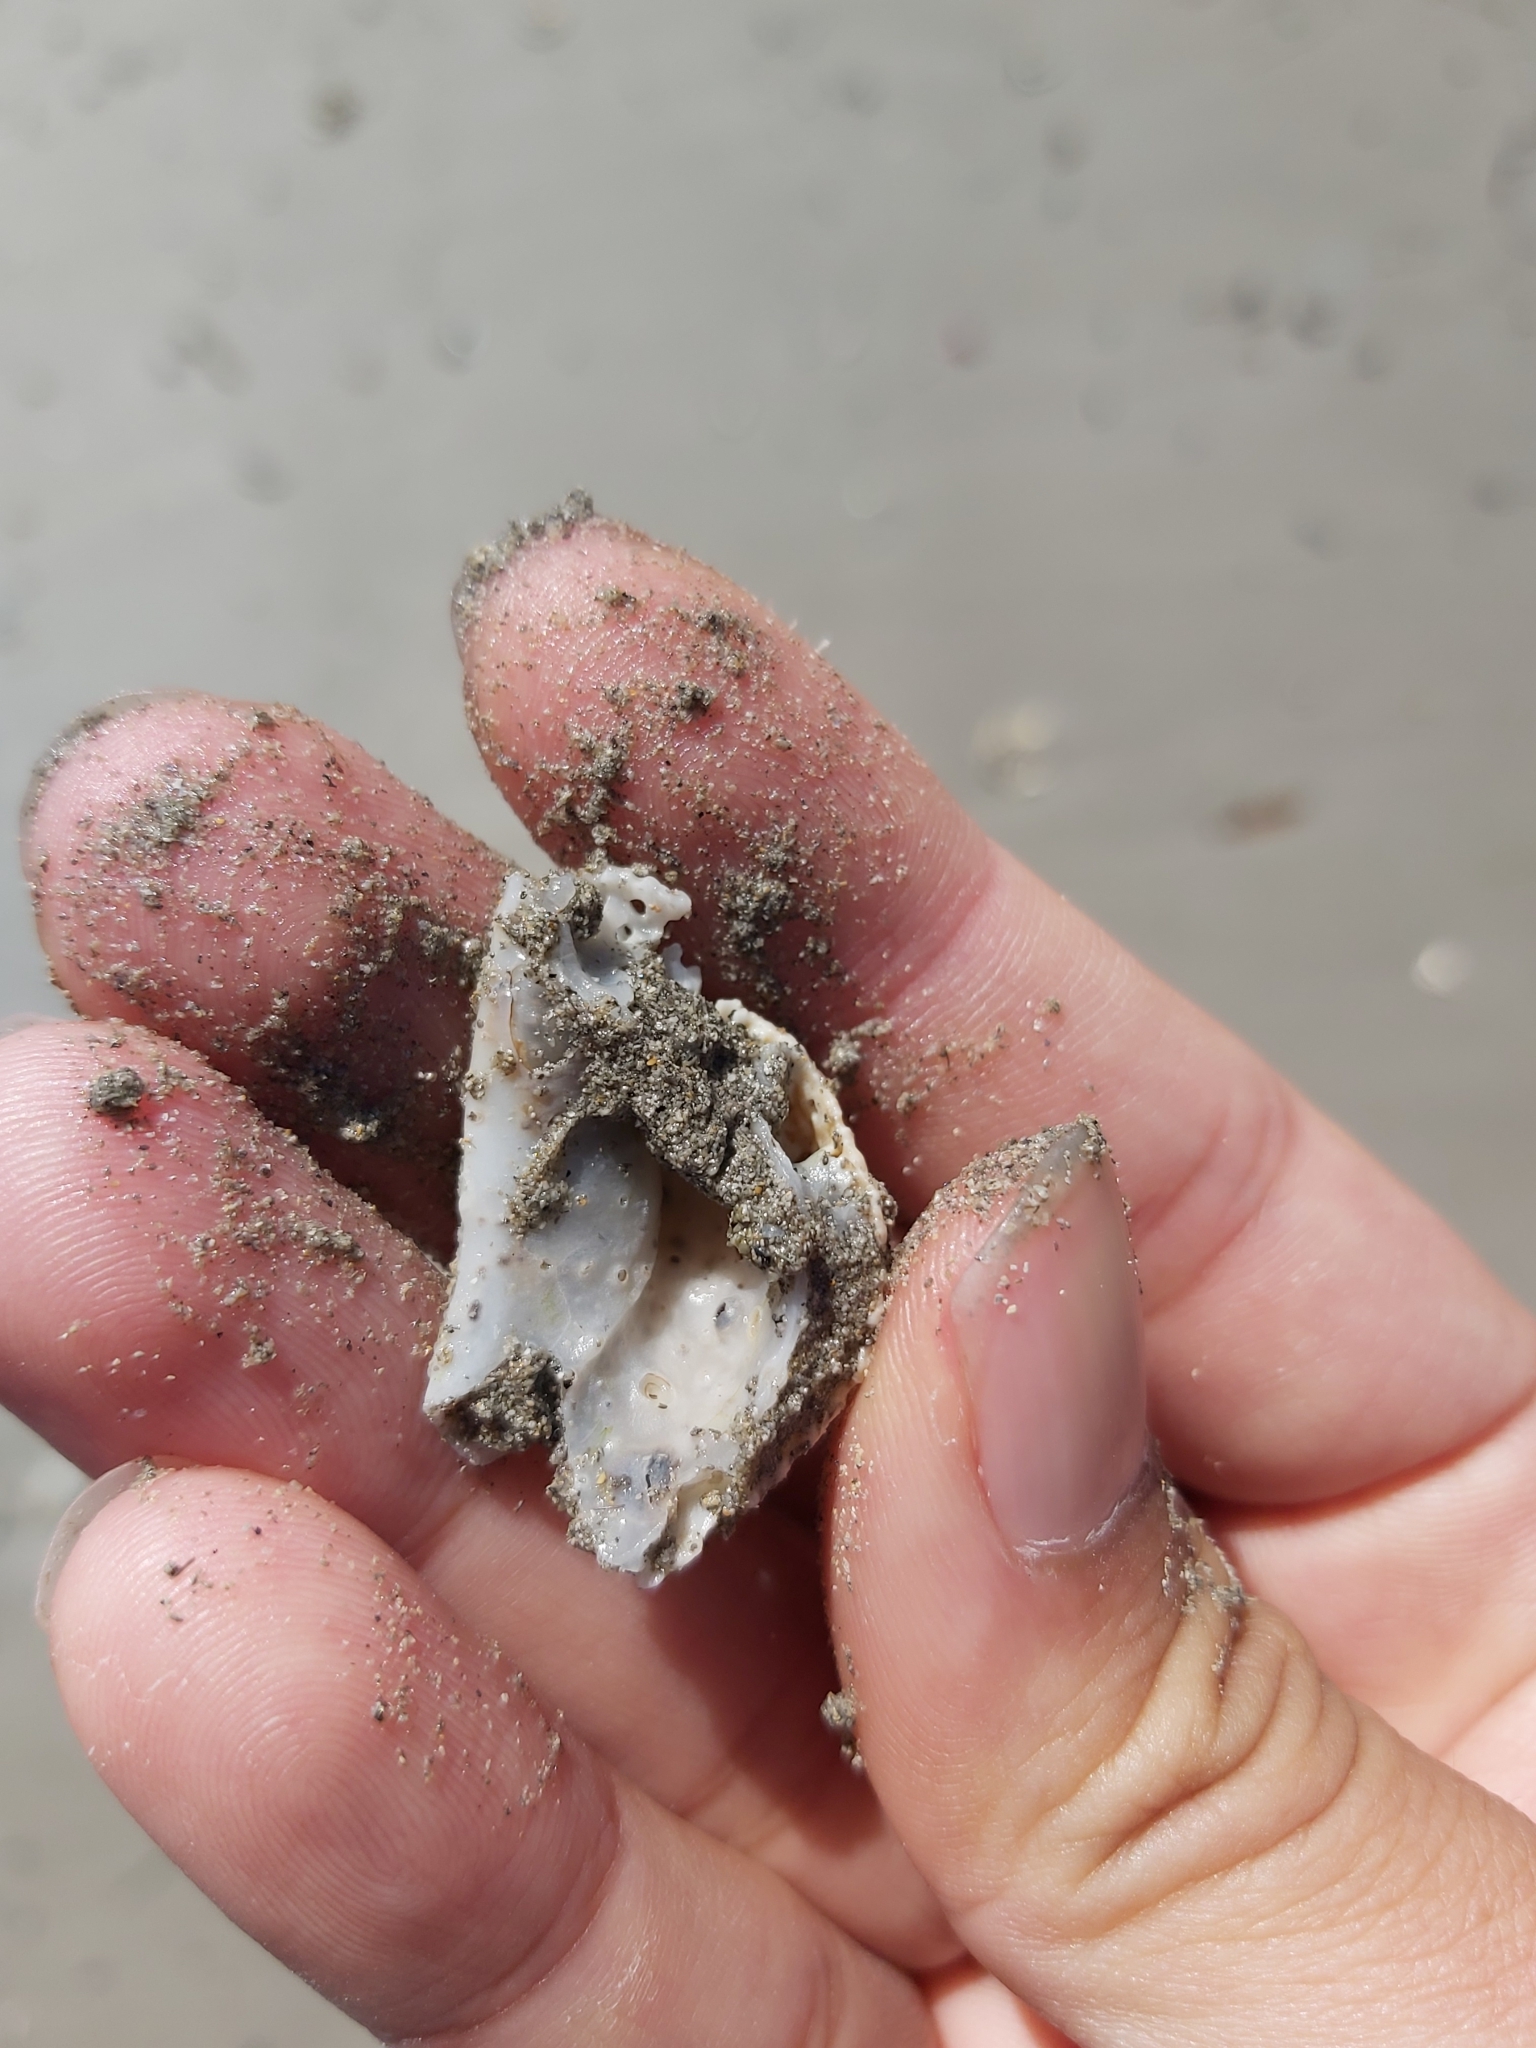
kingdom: Animalia
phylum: Mollusca
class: Bivalvia
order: Arcida
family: Arcidae
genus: Anadara
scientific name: Anadara trapezia
